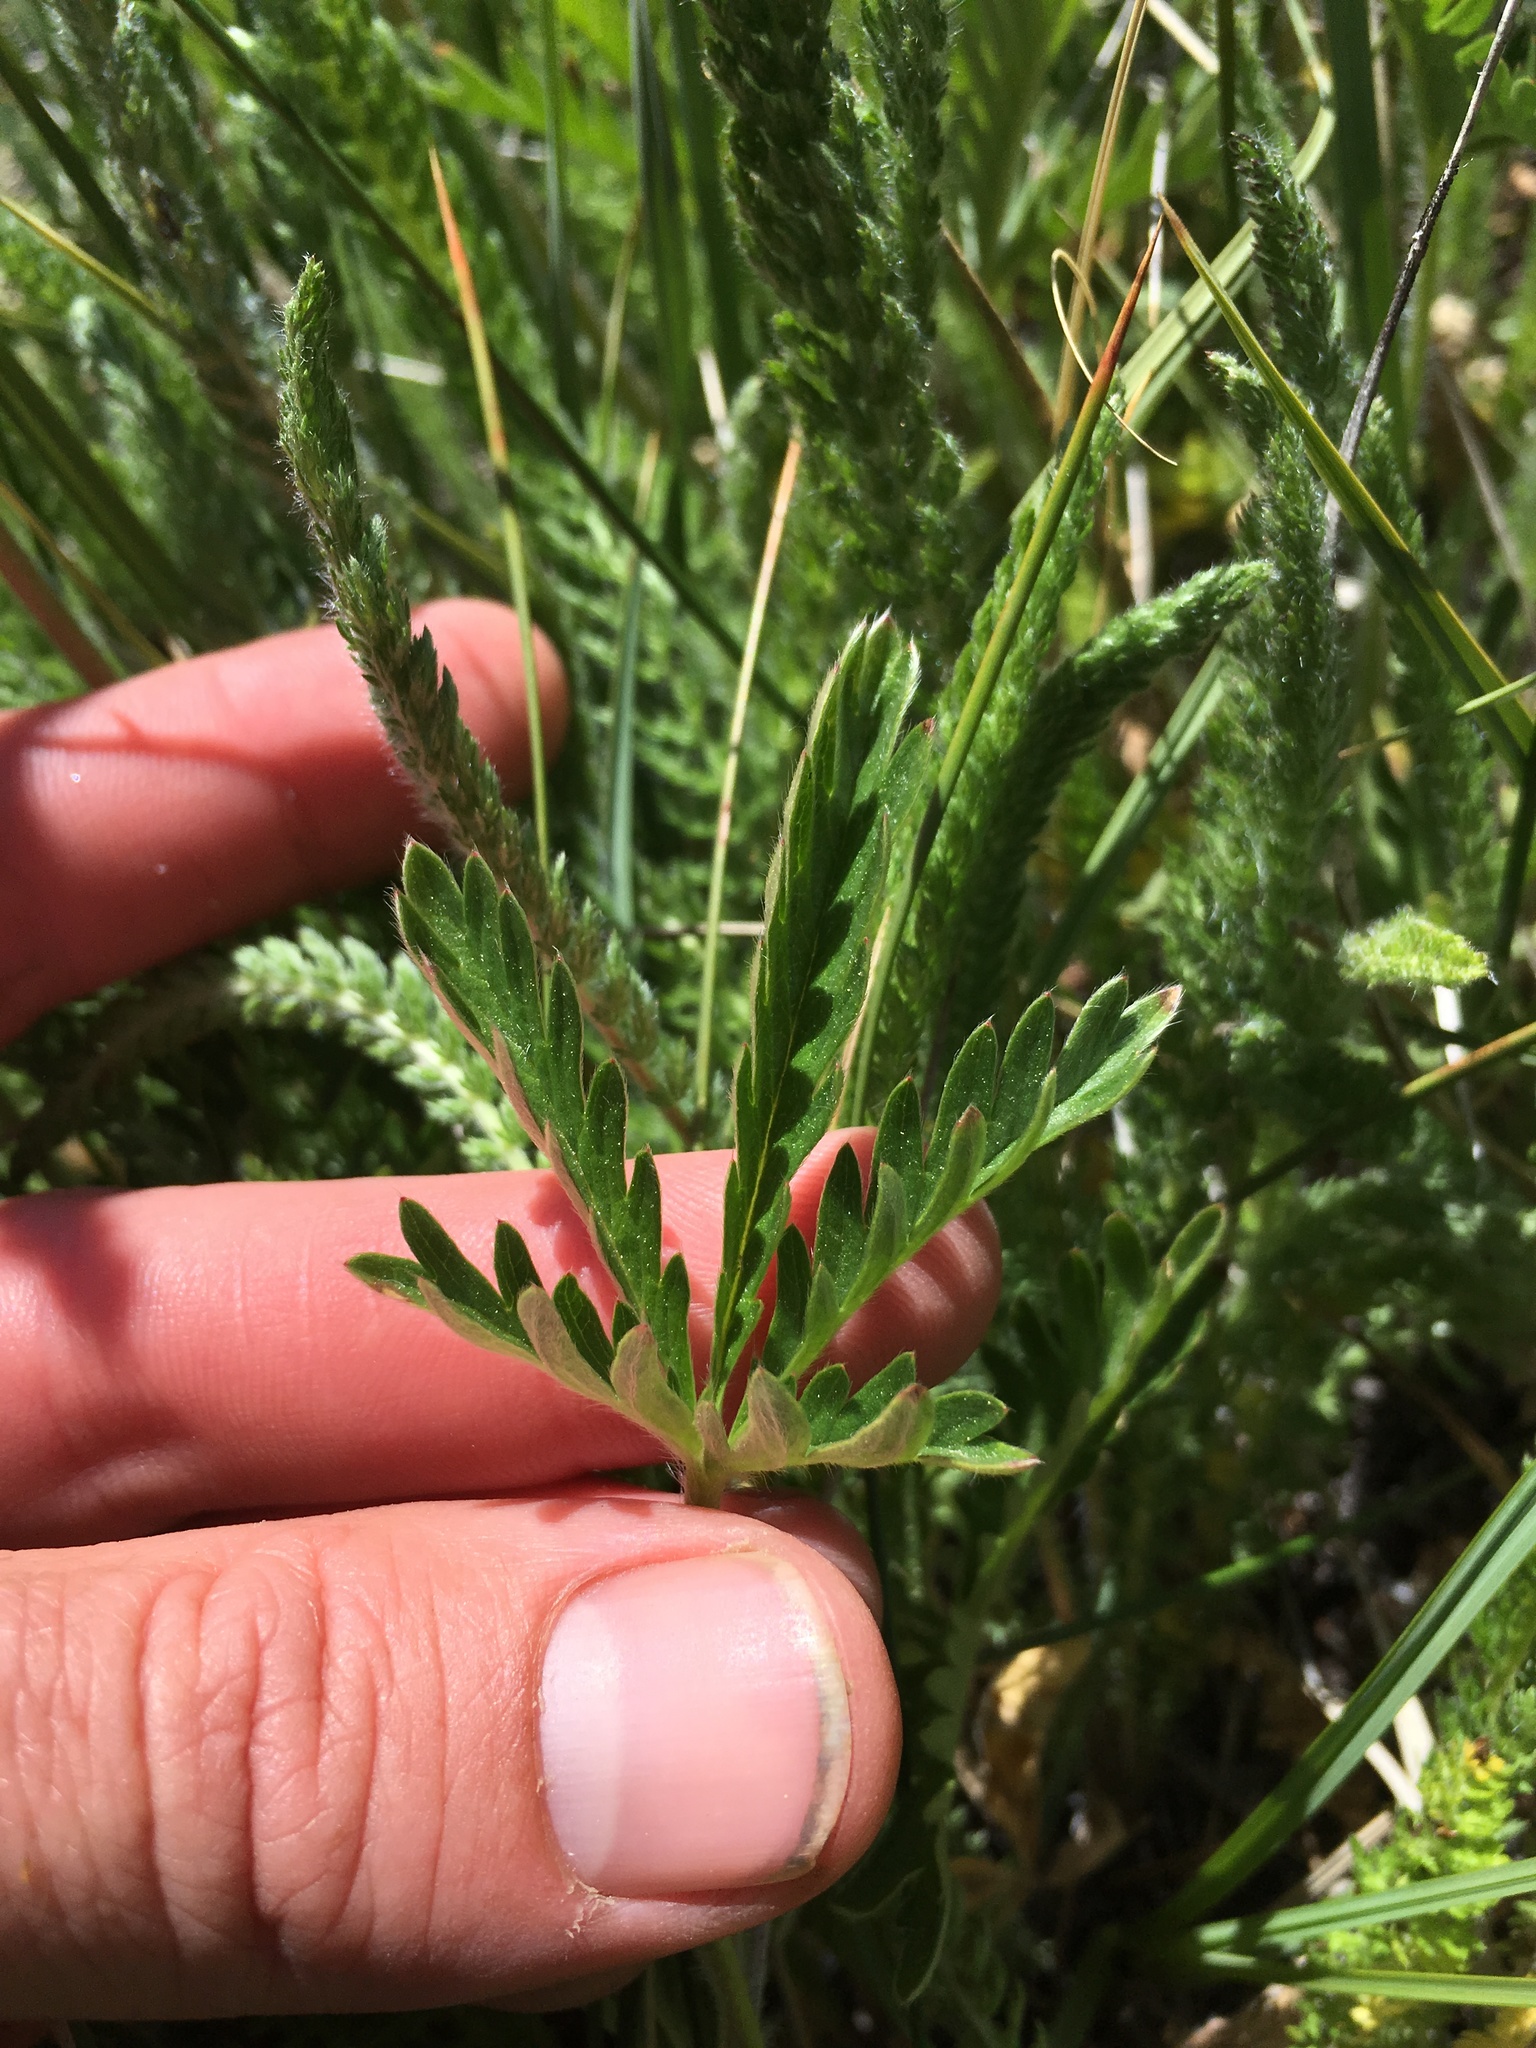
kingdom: Plantae
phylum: Tracheophyta
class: Magnoliopsida
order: Rosales
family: Rosaceae
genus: Potentilla
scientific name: Potentilla gracilis
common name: Graceful cinquefoil
